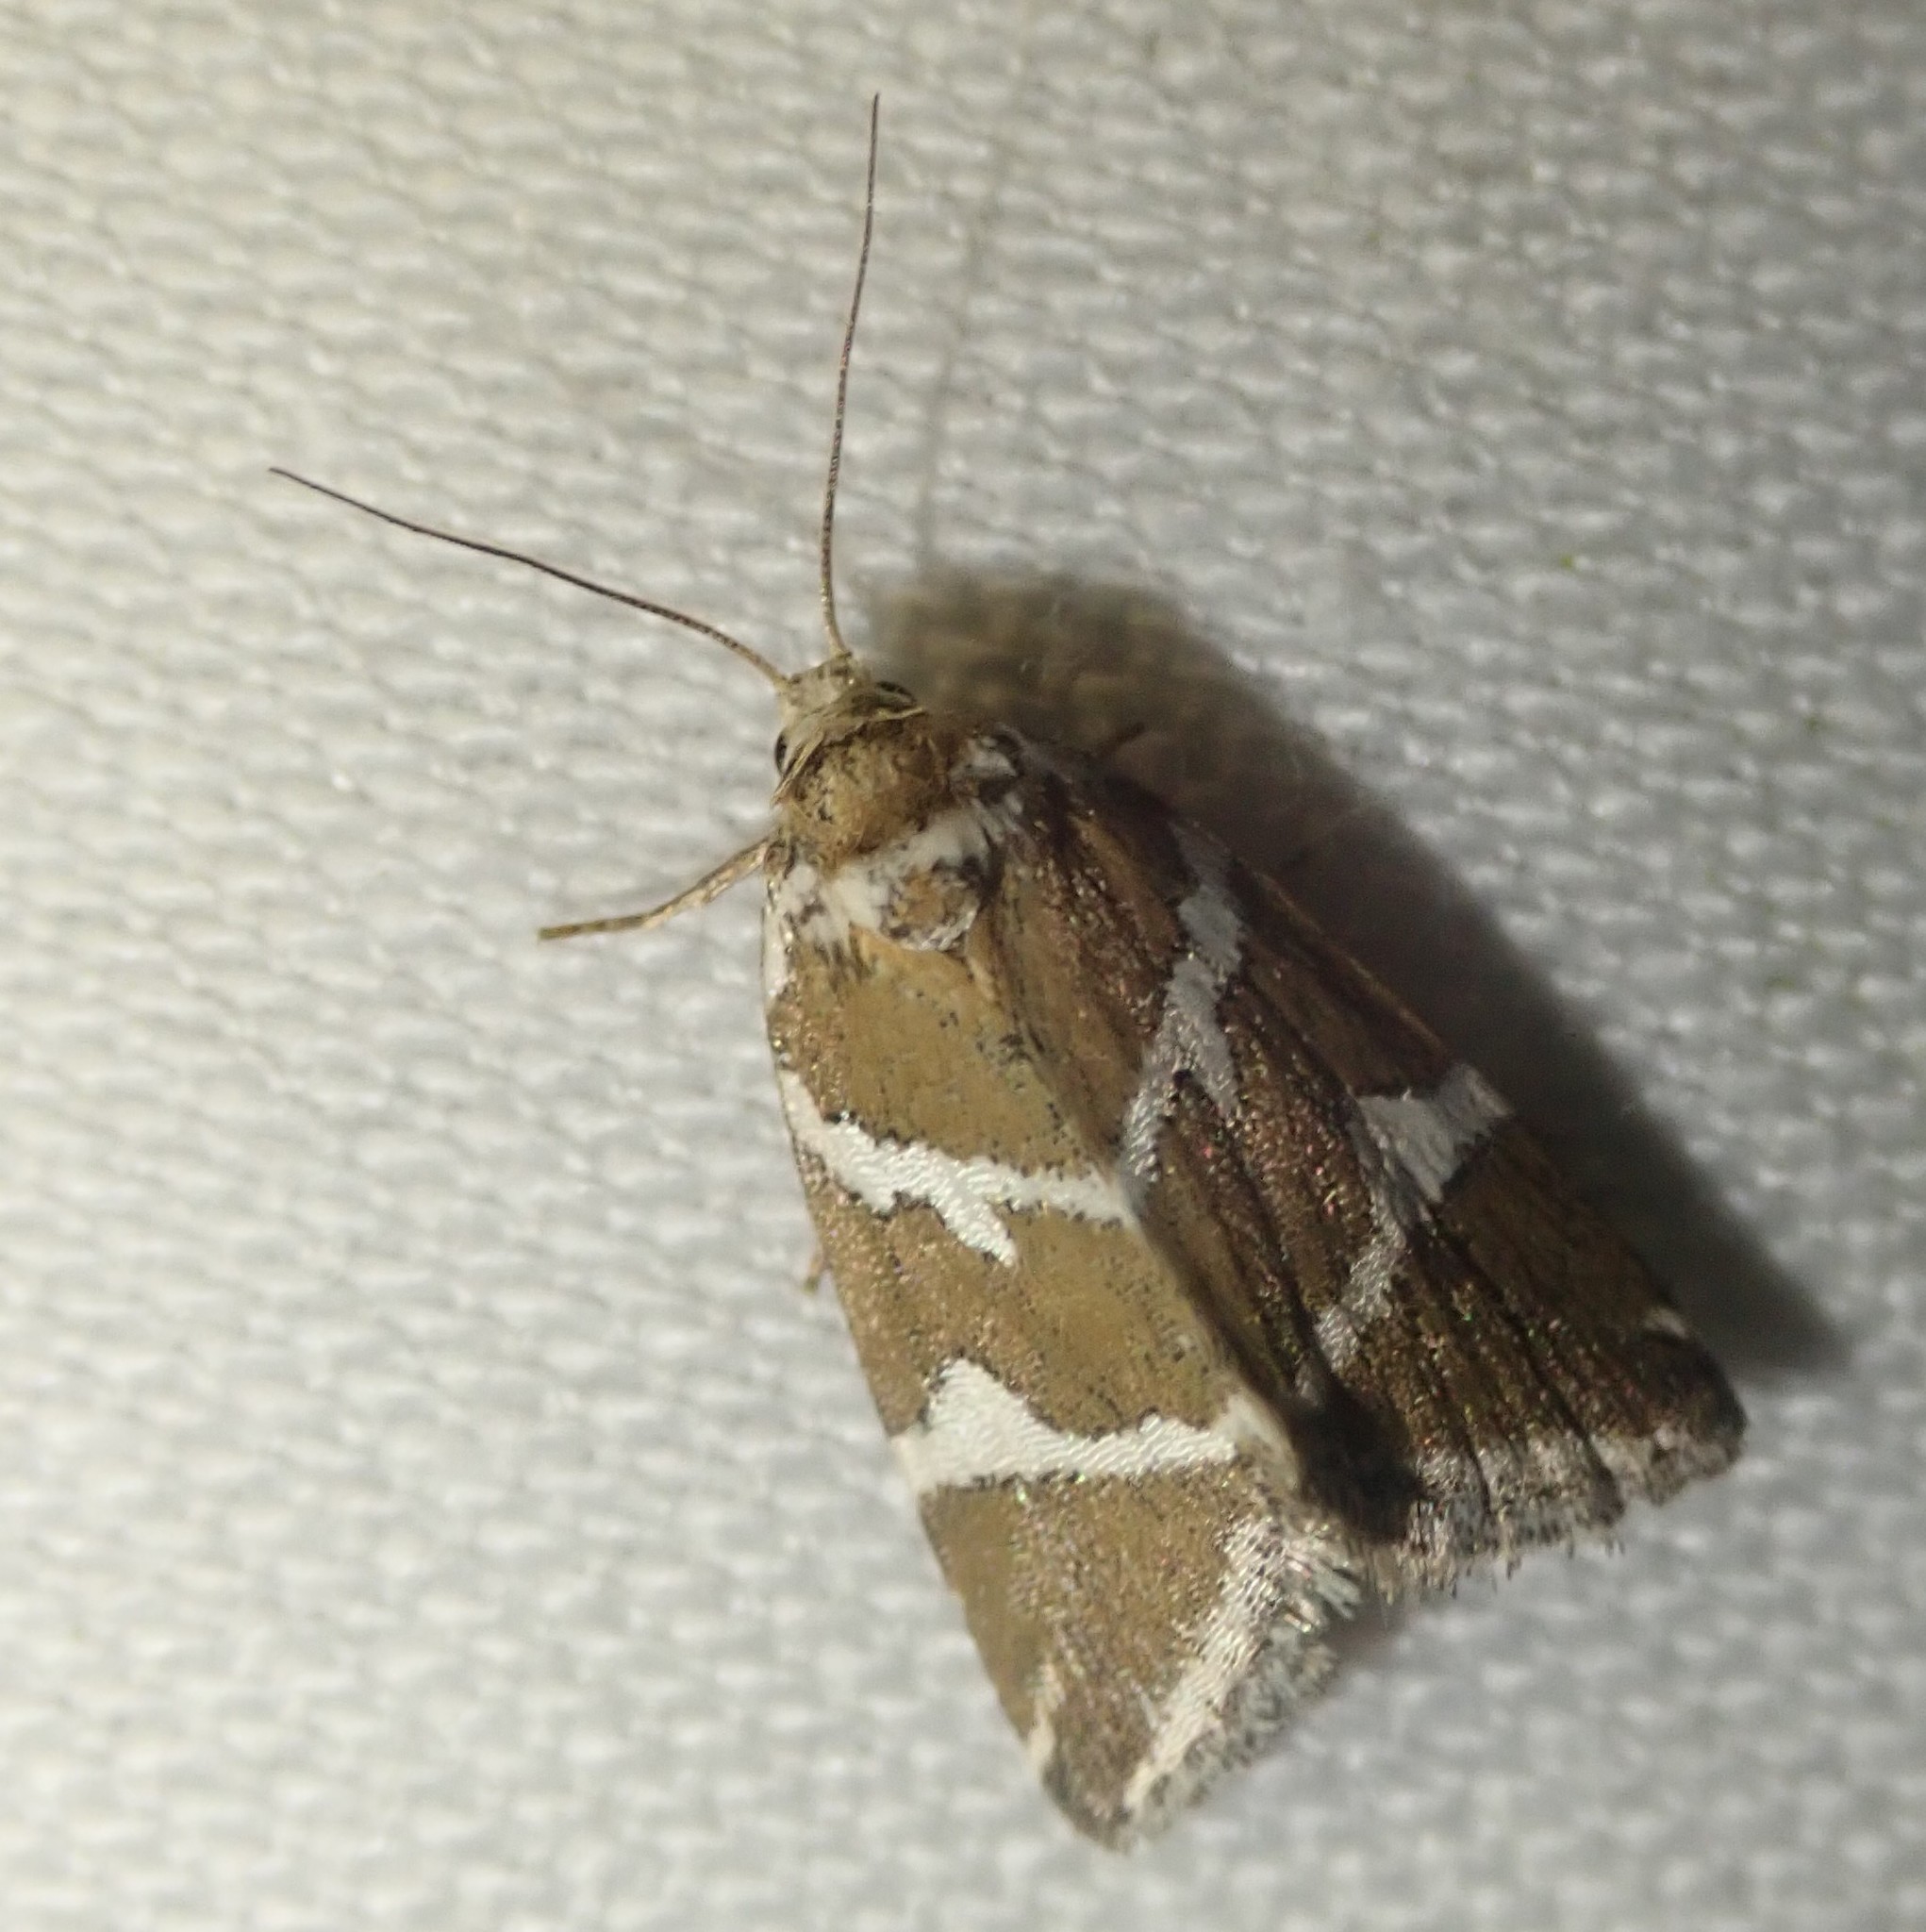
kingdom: Animalia
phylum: Arthropoda
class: Insecta
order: Lepidoptera
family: Noctuidae
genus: Deltote
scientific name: Deltote bankiana
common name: Silver barred
